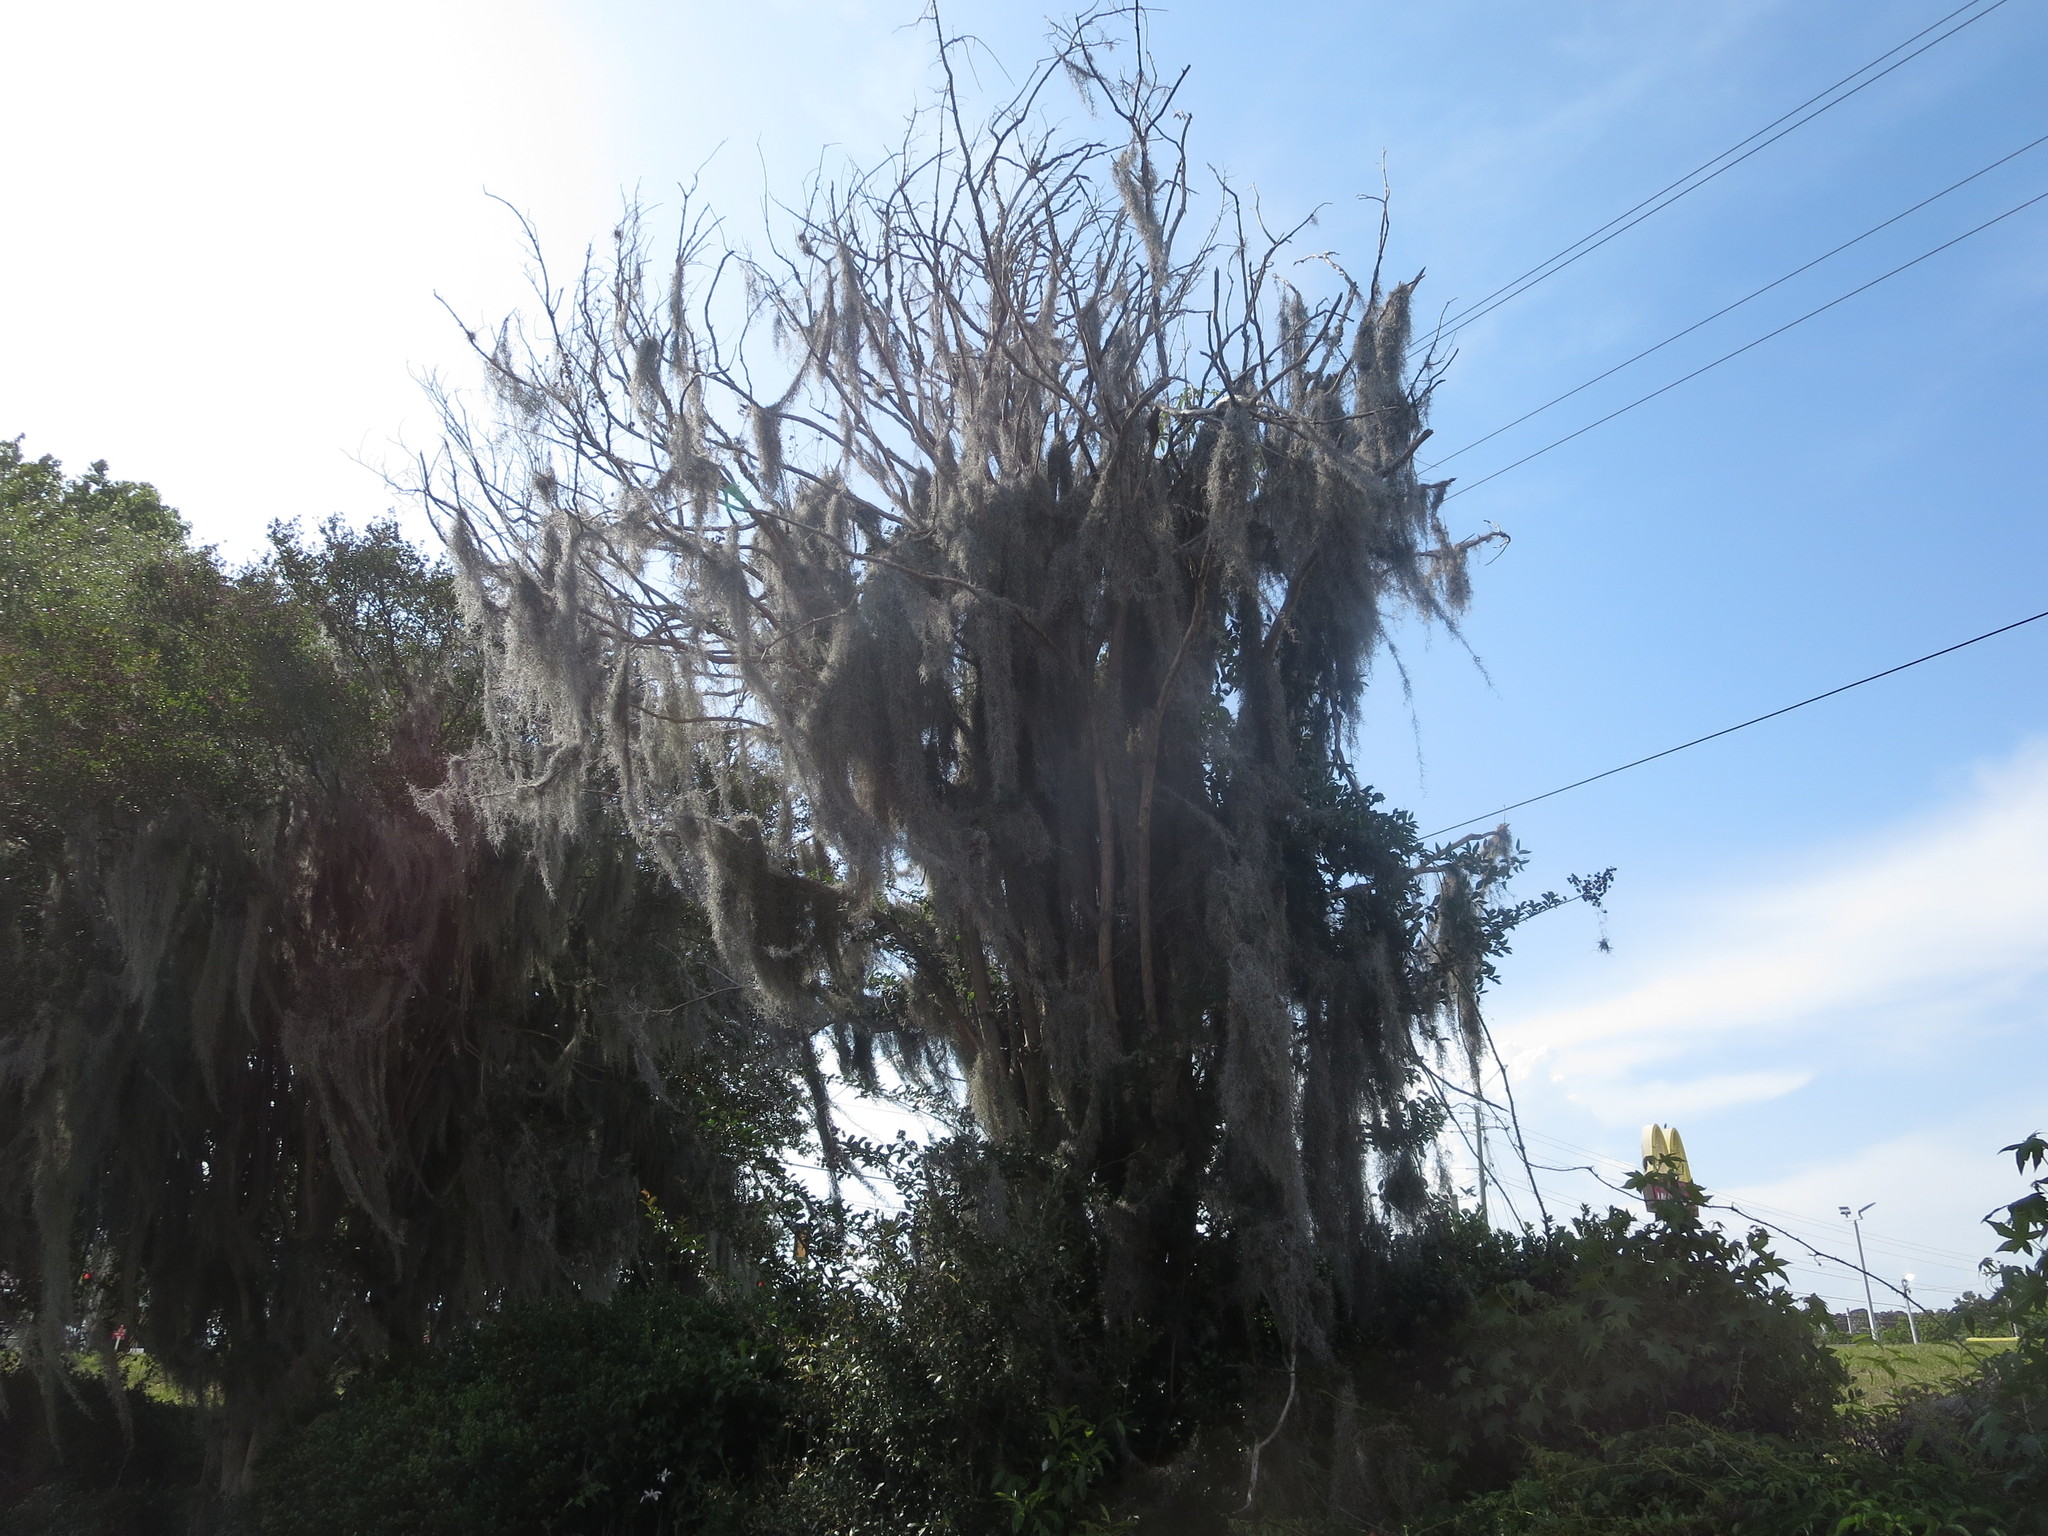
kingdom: Plantae
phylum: Tracheophyta
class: Liliopsida
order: Poales
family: Bromeliaceae
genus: Tillandsia
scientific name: Tillandsia usneoides
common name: Spanish moss
